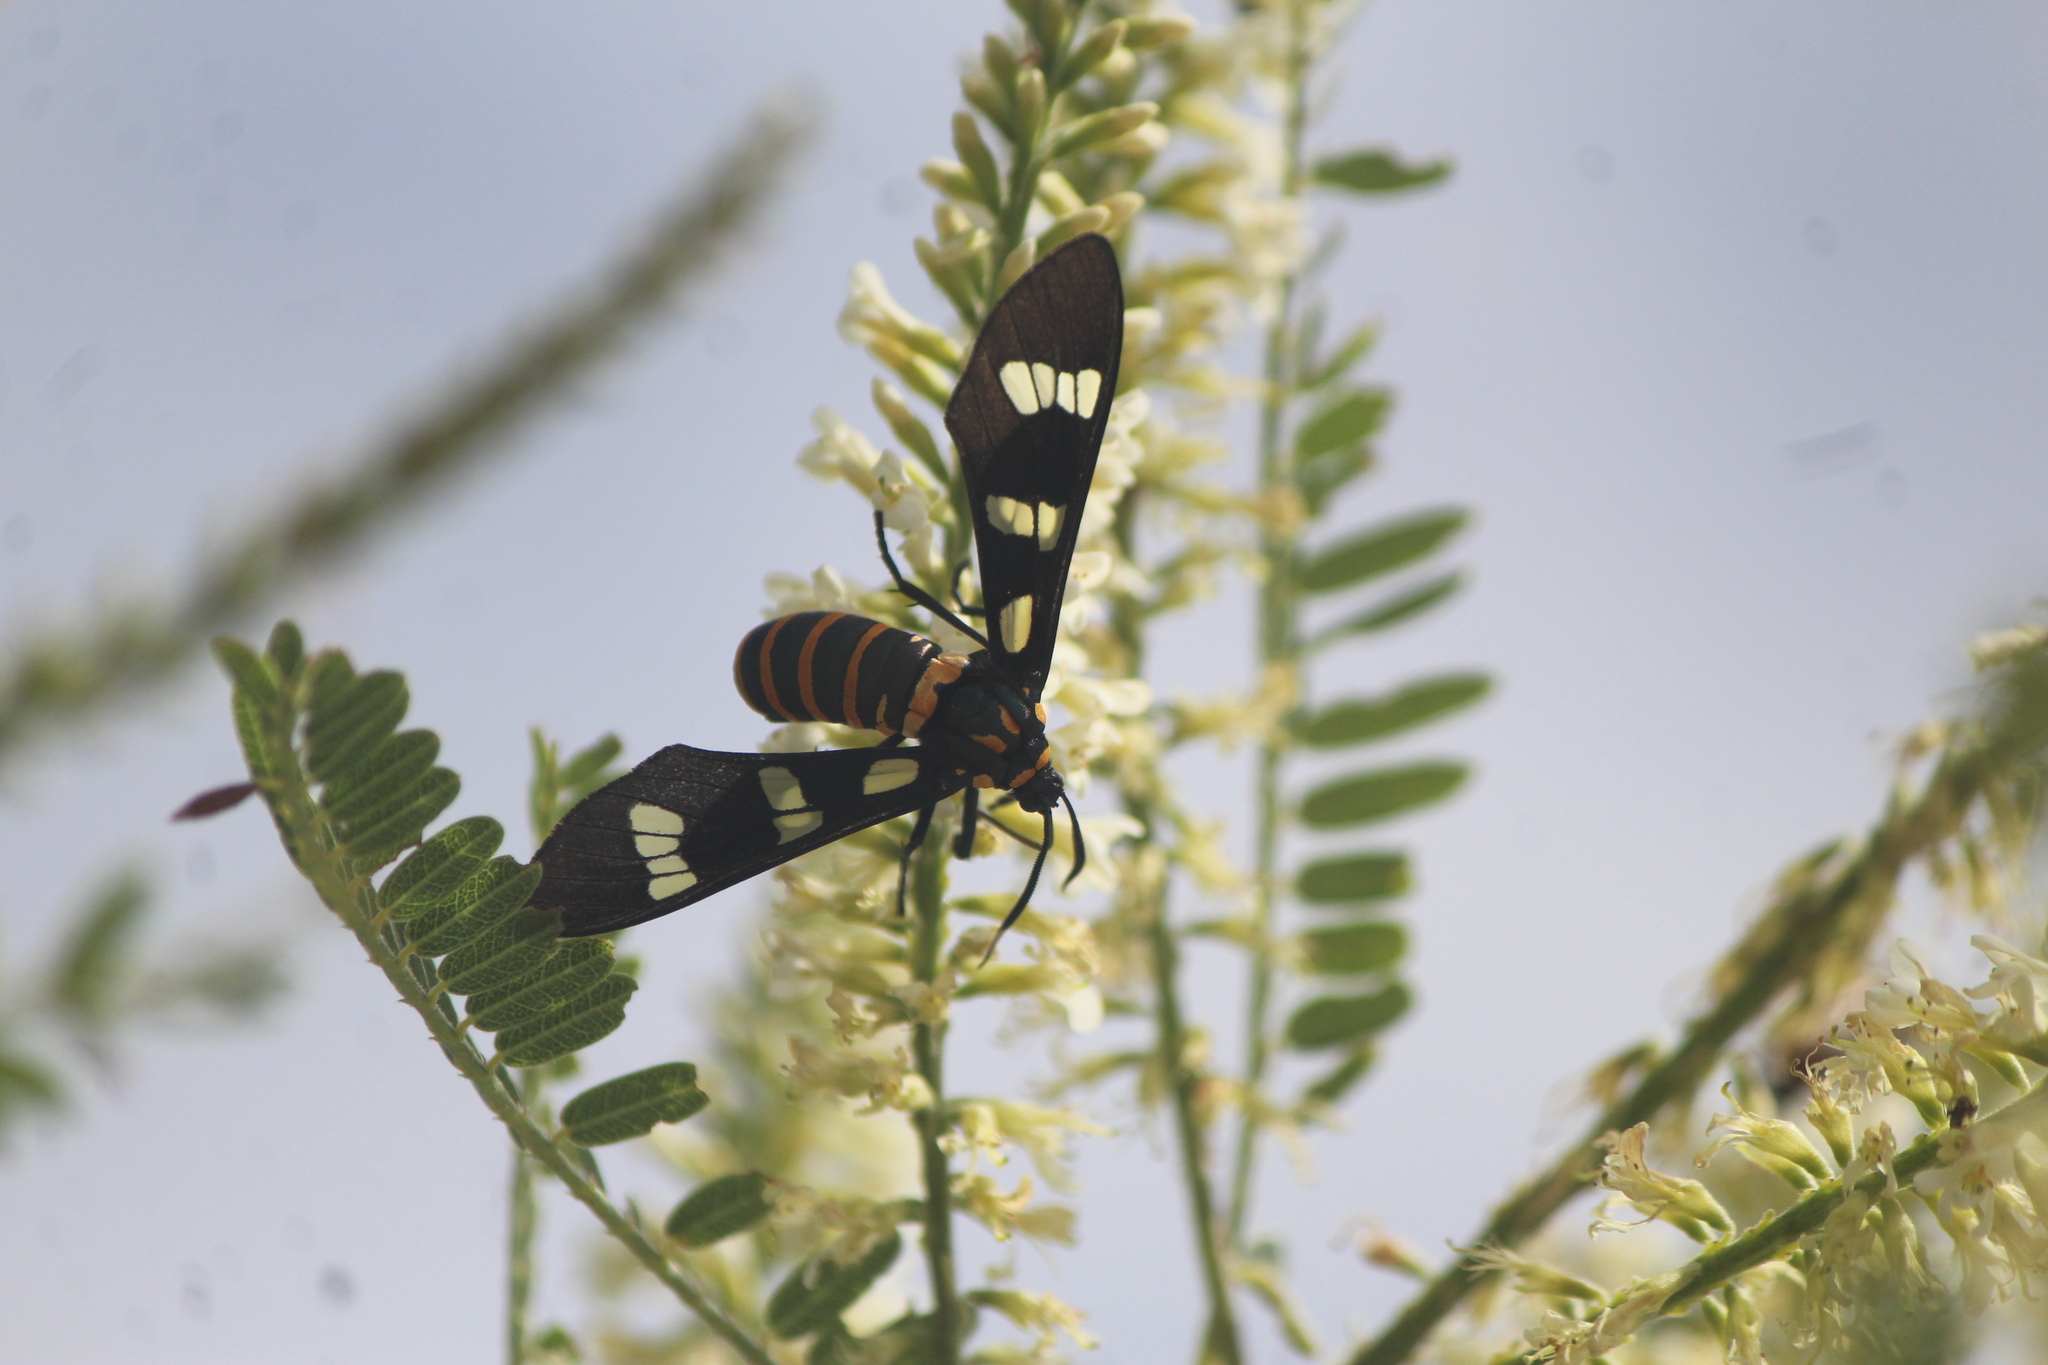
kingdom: Animalia
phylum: Arthropoda
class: Insecta
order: Lepidoptera
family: Erebidae
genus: Syntomeida
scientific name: Syntomeida melanthus
